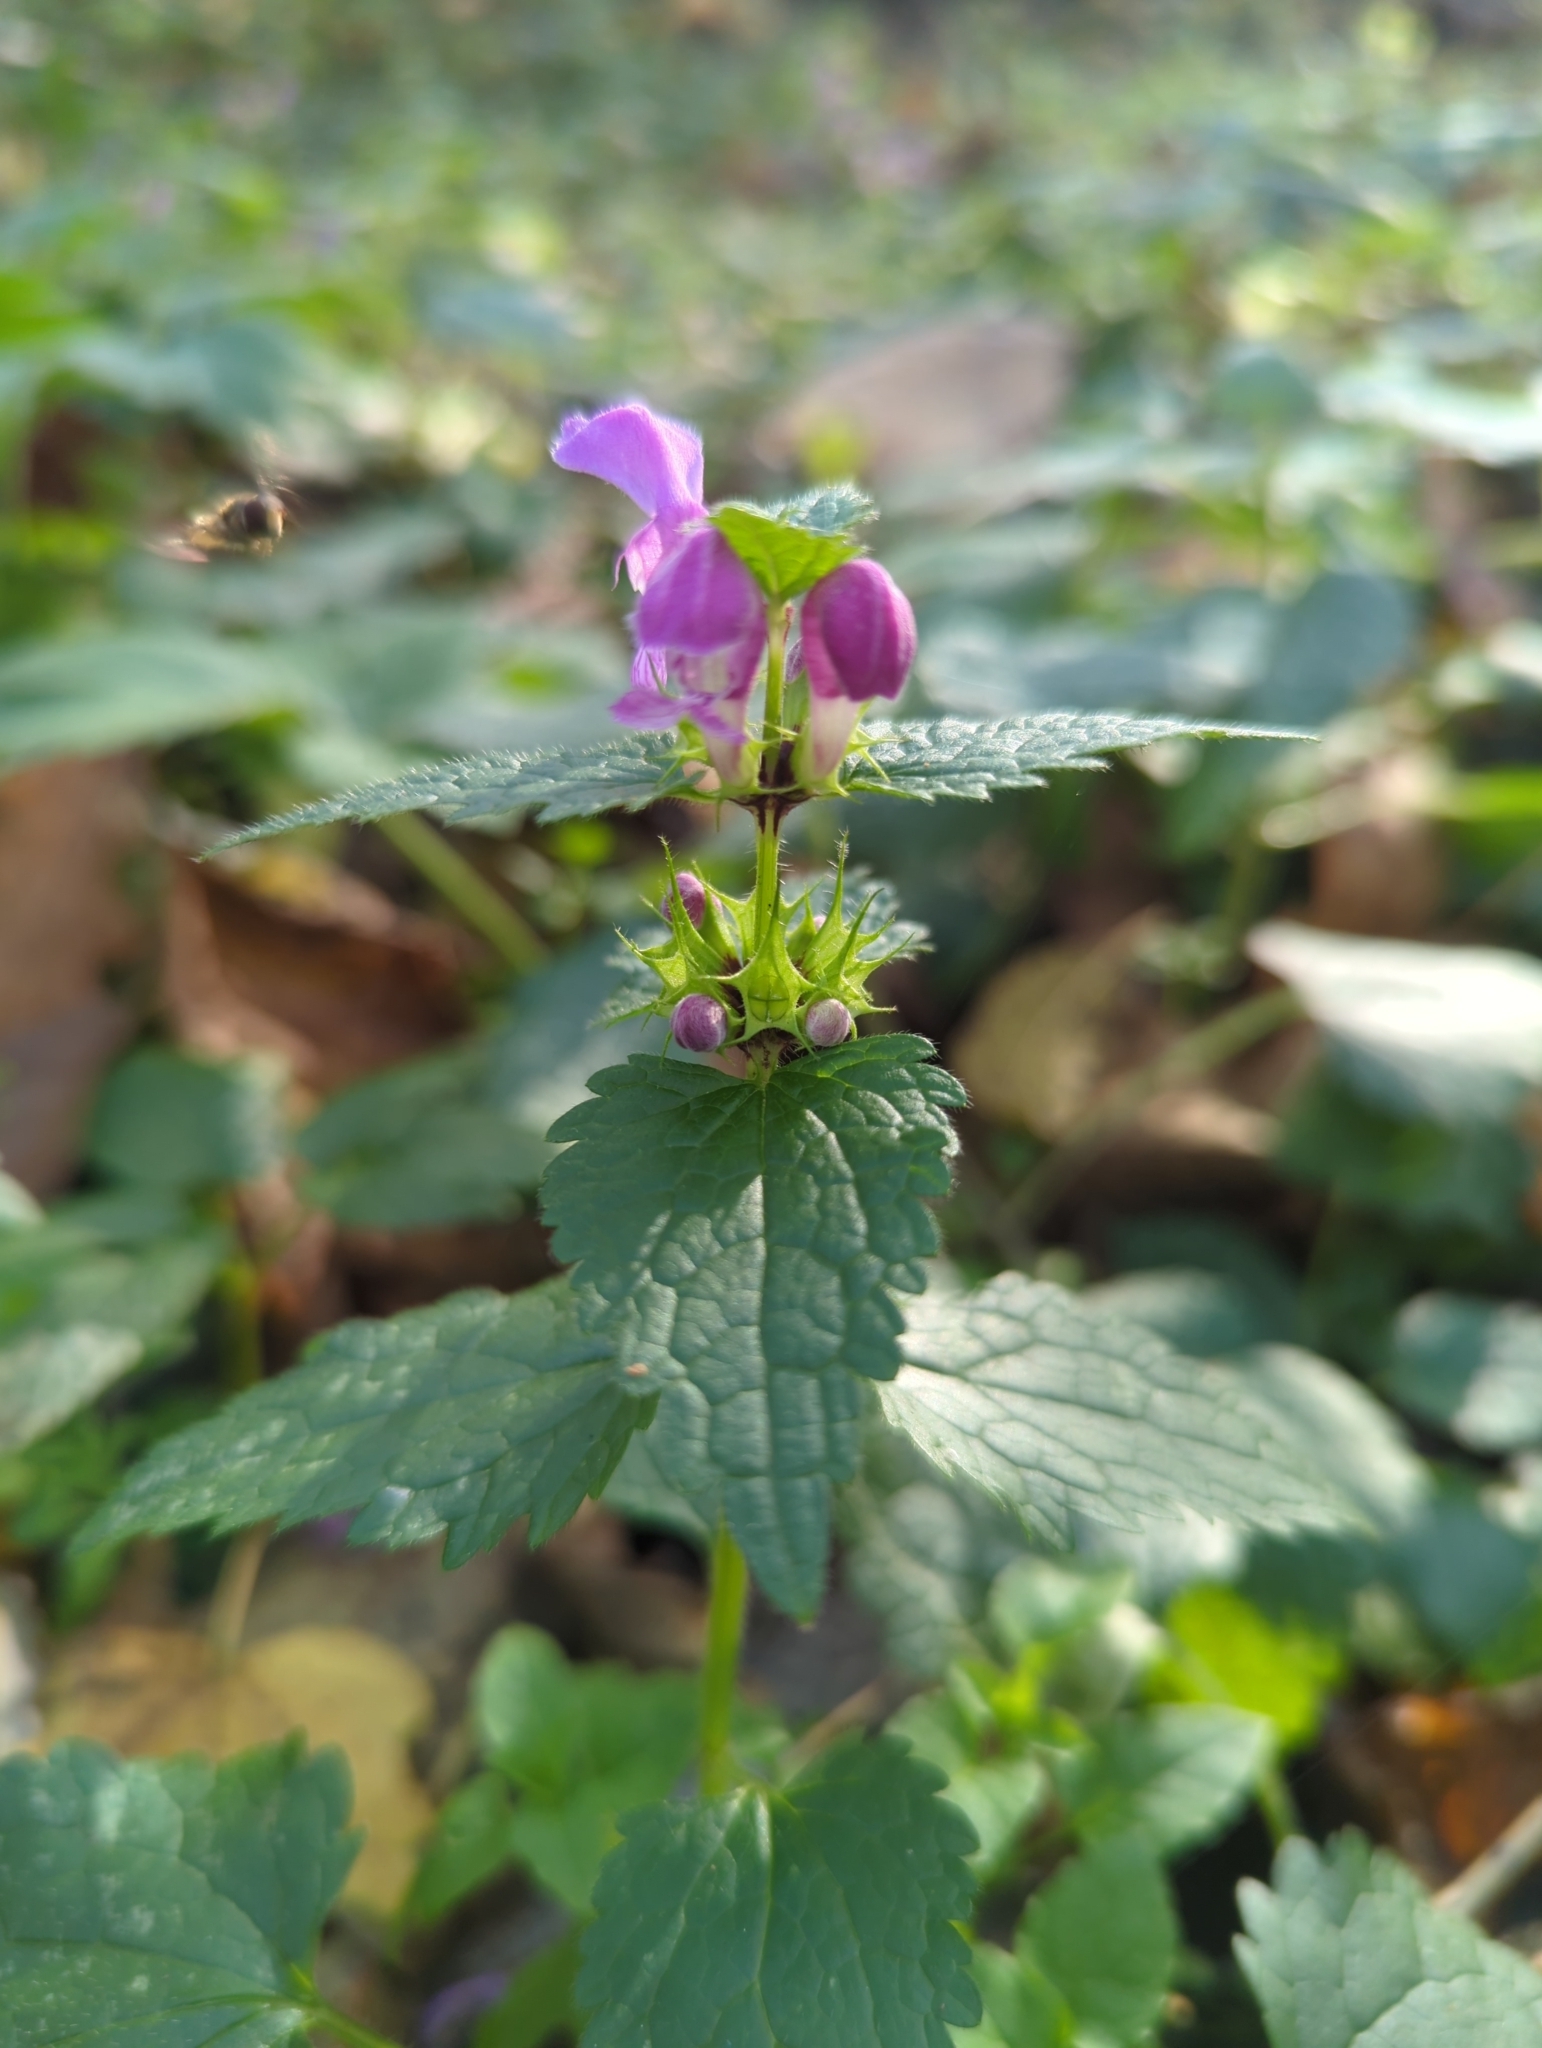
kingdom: Plantae
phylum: Tracheophyta
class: Magnoliopsida
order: Lamiales
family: Lamiaceae
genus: Lamium
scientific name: Lamium maculatum
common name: Spotted dead-nettle
